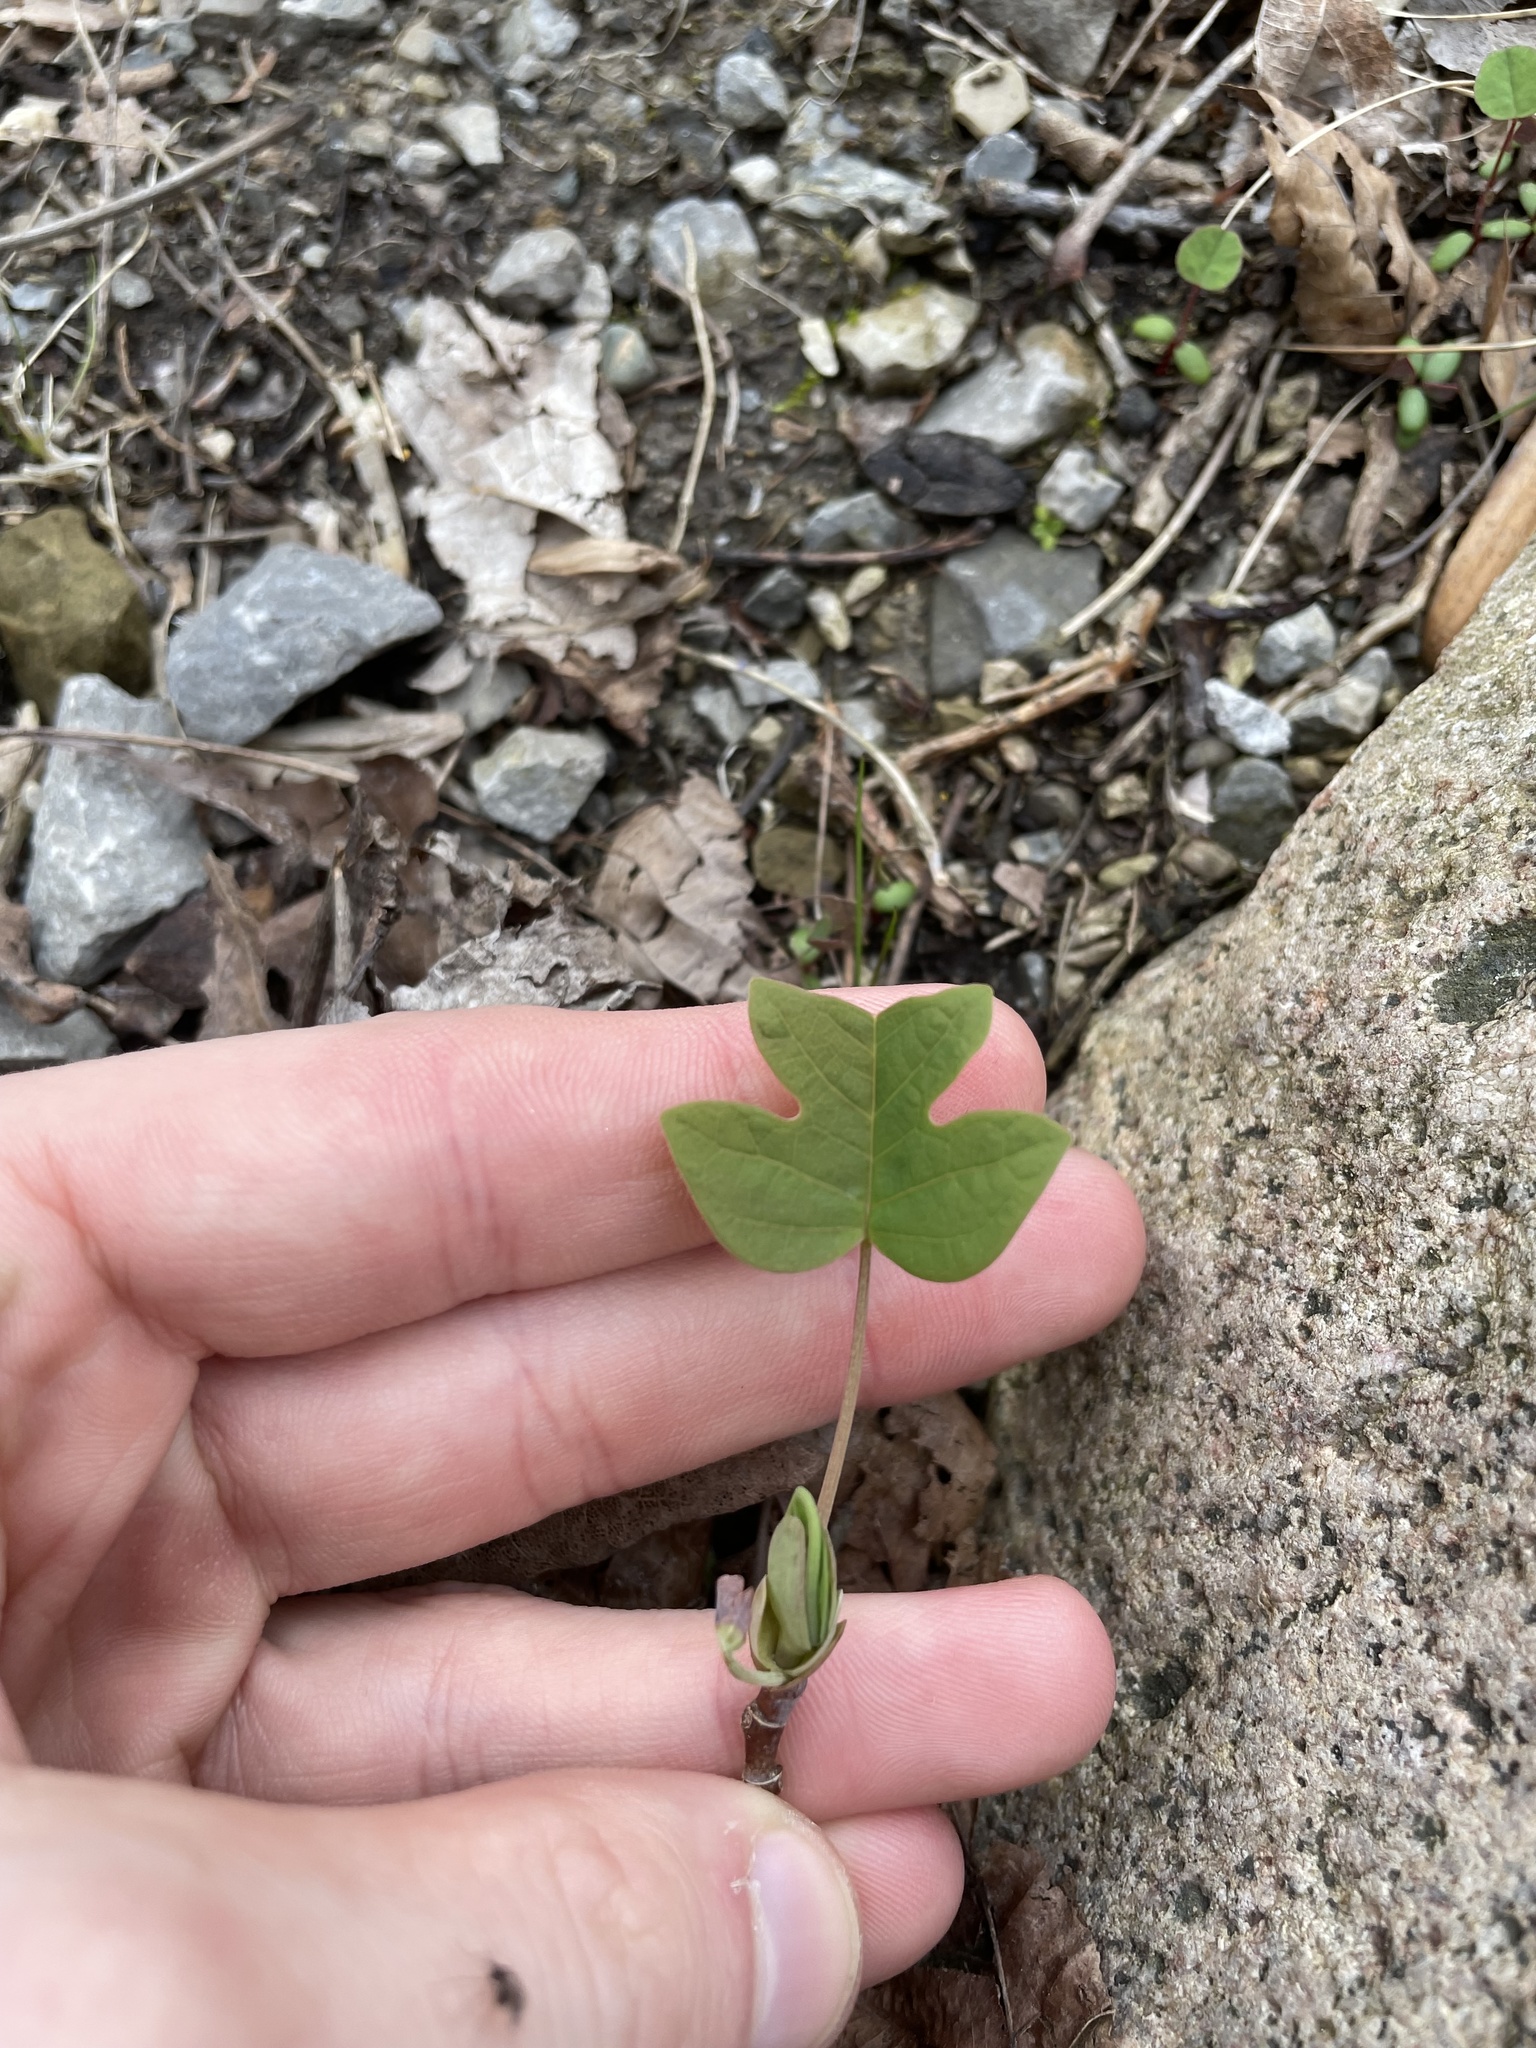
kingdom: Plantae
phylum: Tracheophyta
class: Magnoliopsida
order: Magnoliales
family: Magnoliaceae
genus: Liriodendron
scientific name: Liriodendron tulipifera
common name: Tulip tree
